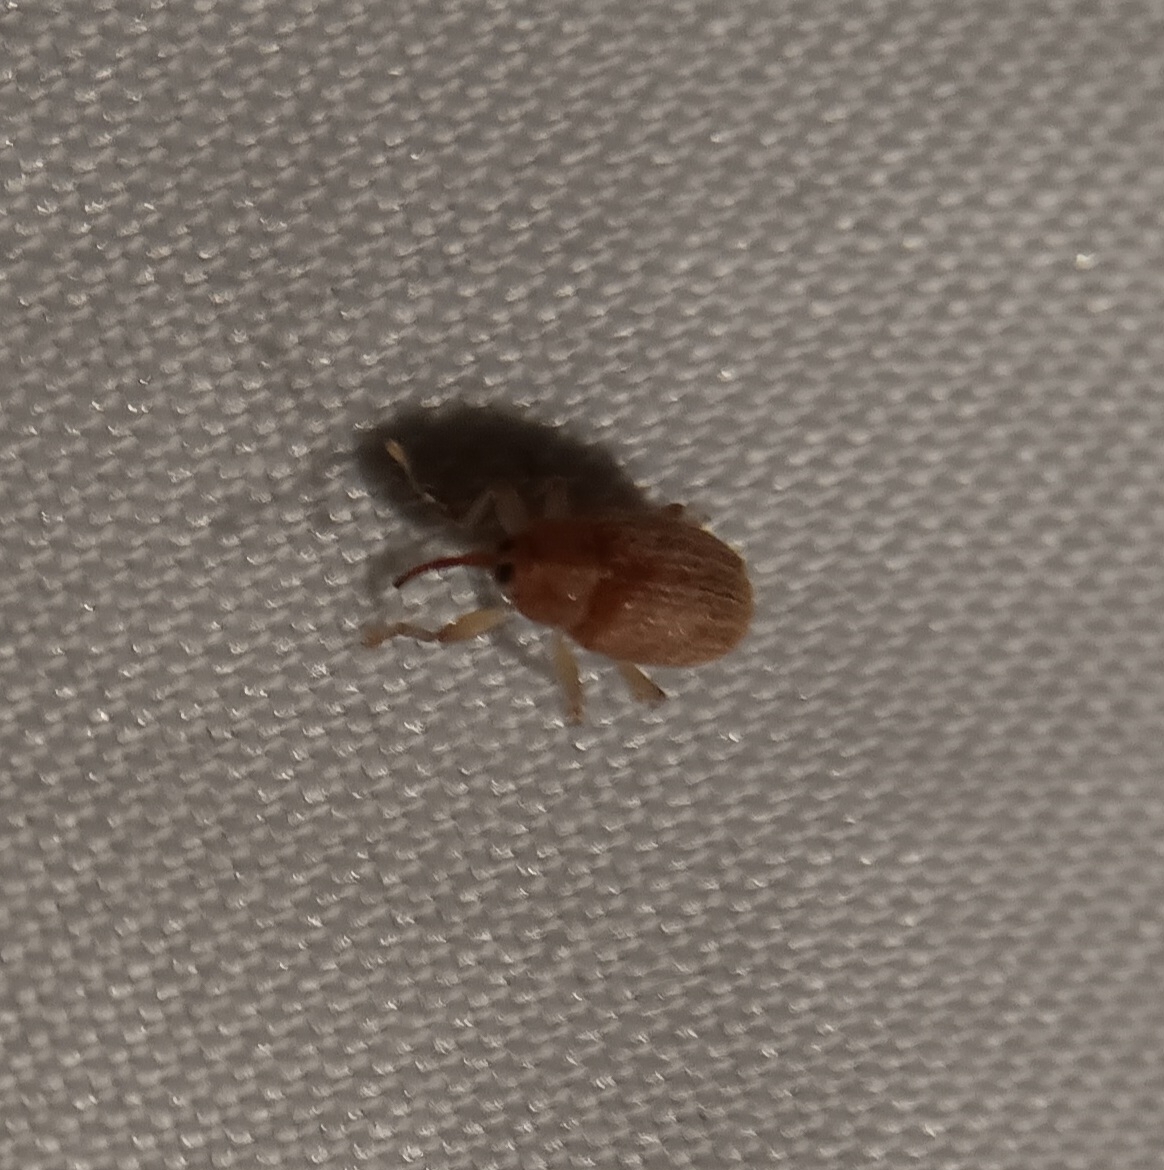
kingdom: Animalia
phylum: Arthropoda
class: Insecta
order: Coleoptera
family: Curculionidae
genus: Lignyodes
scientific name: Lignyodes helvolus
